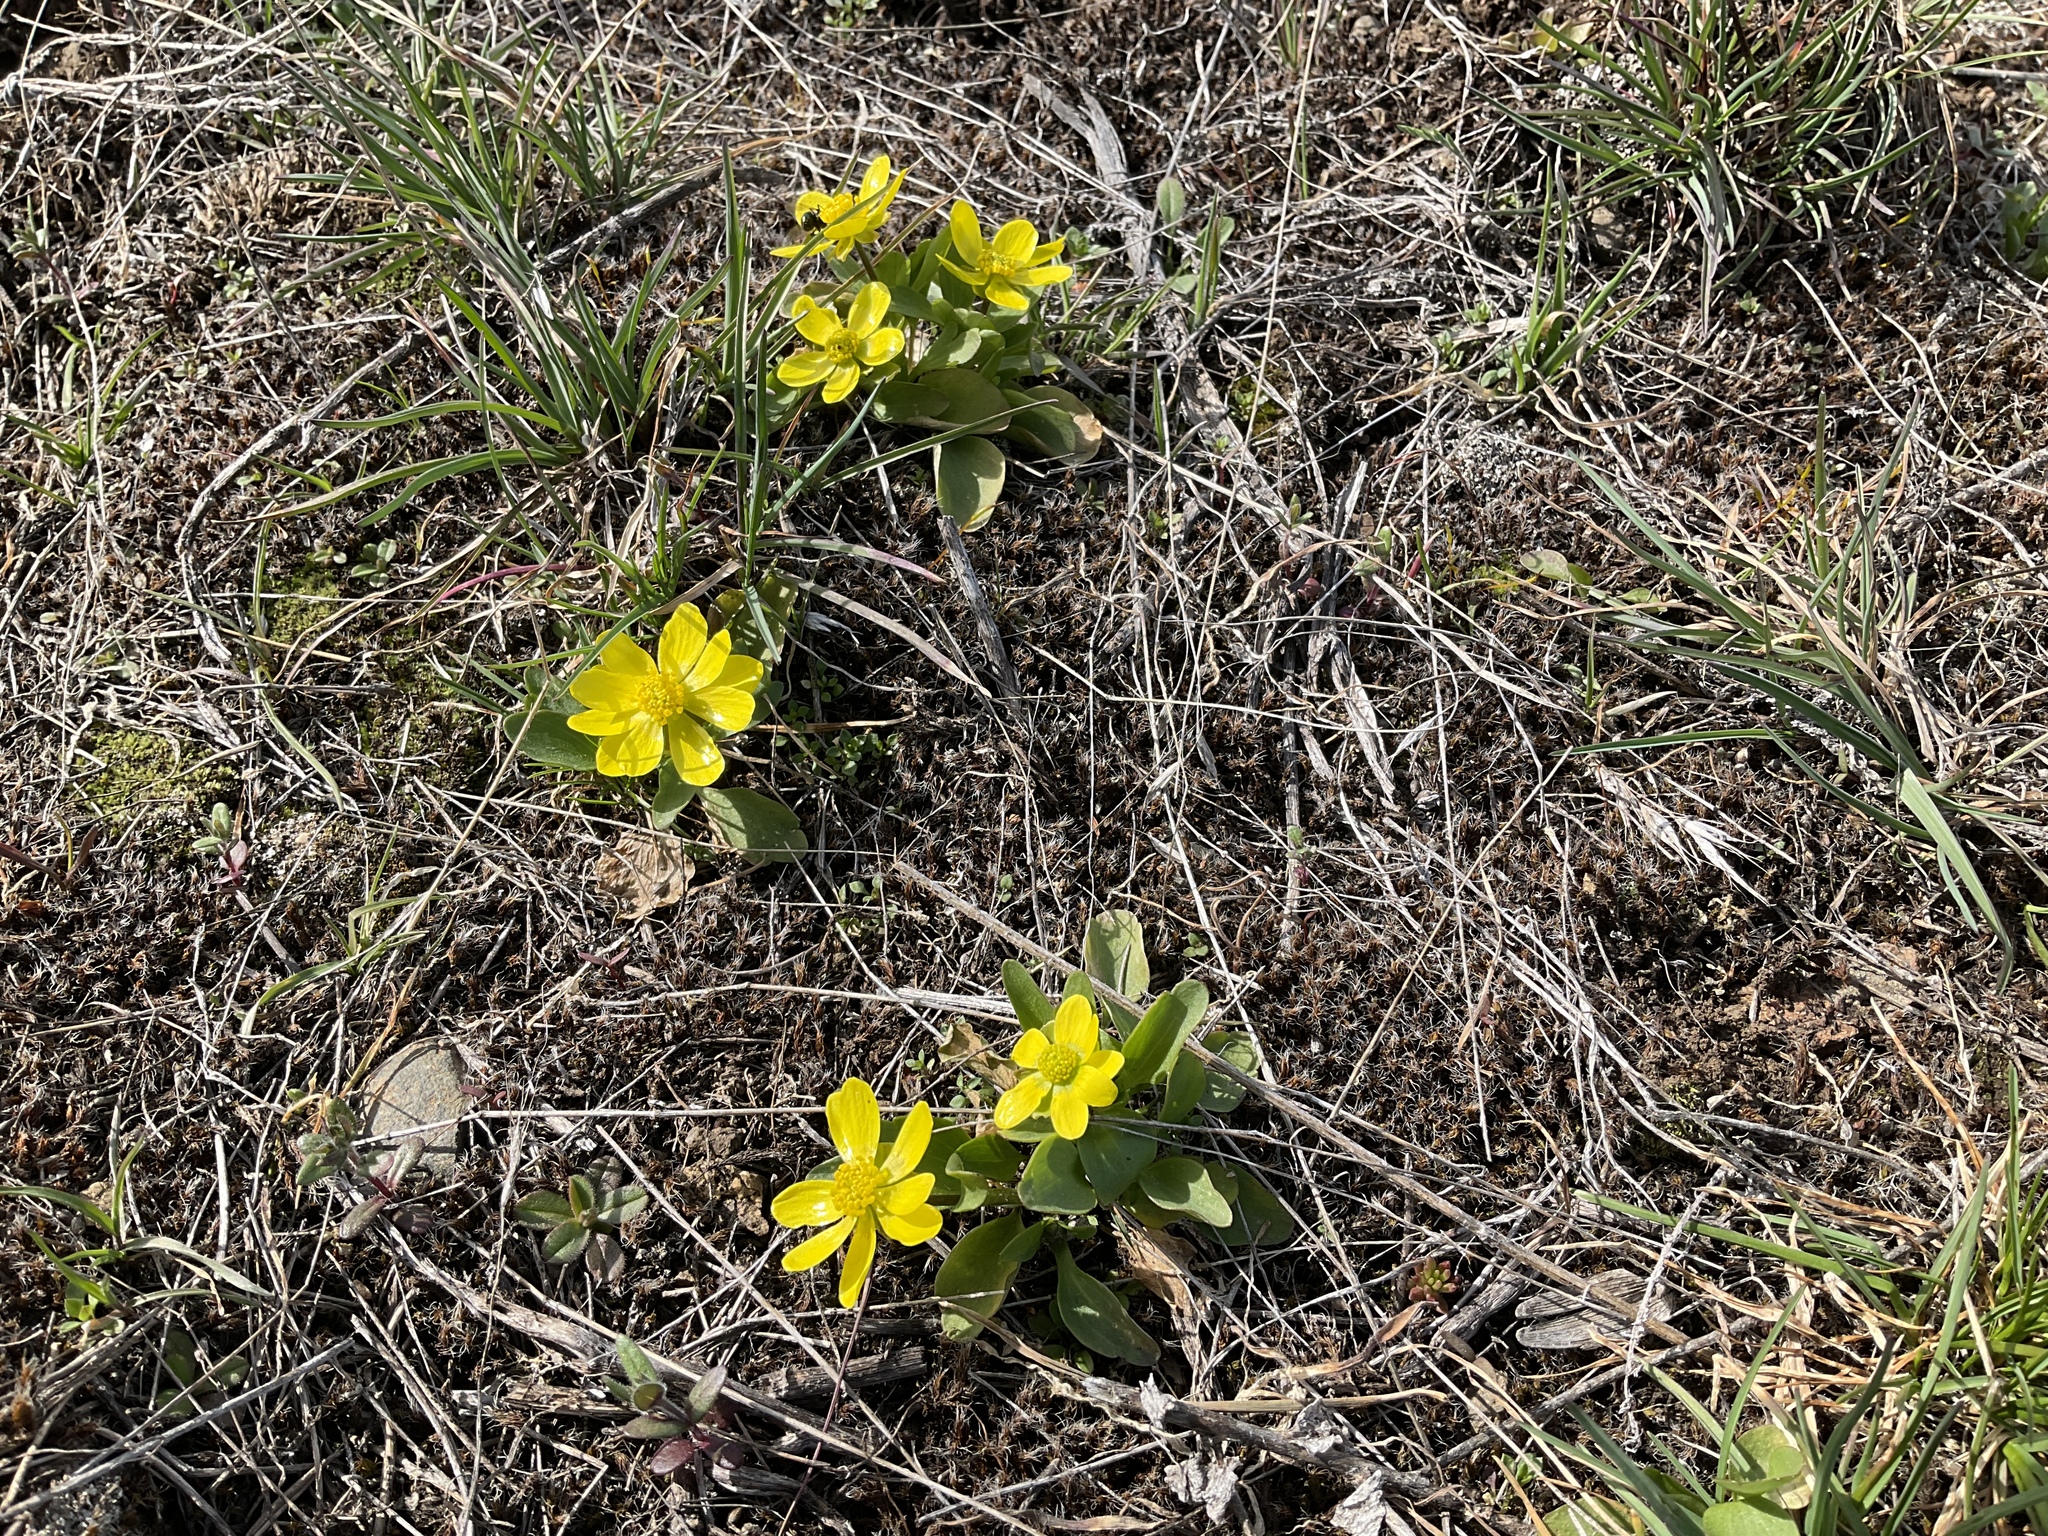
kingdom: Plantae
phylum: Tracheophyta
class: Magnoliopsida
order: Ranunculales
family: Ranunculaceae
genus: Ranunculus
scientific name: Ranunculus glaberrimus
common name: Sagebrush buttercup
